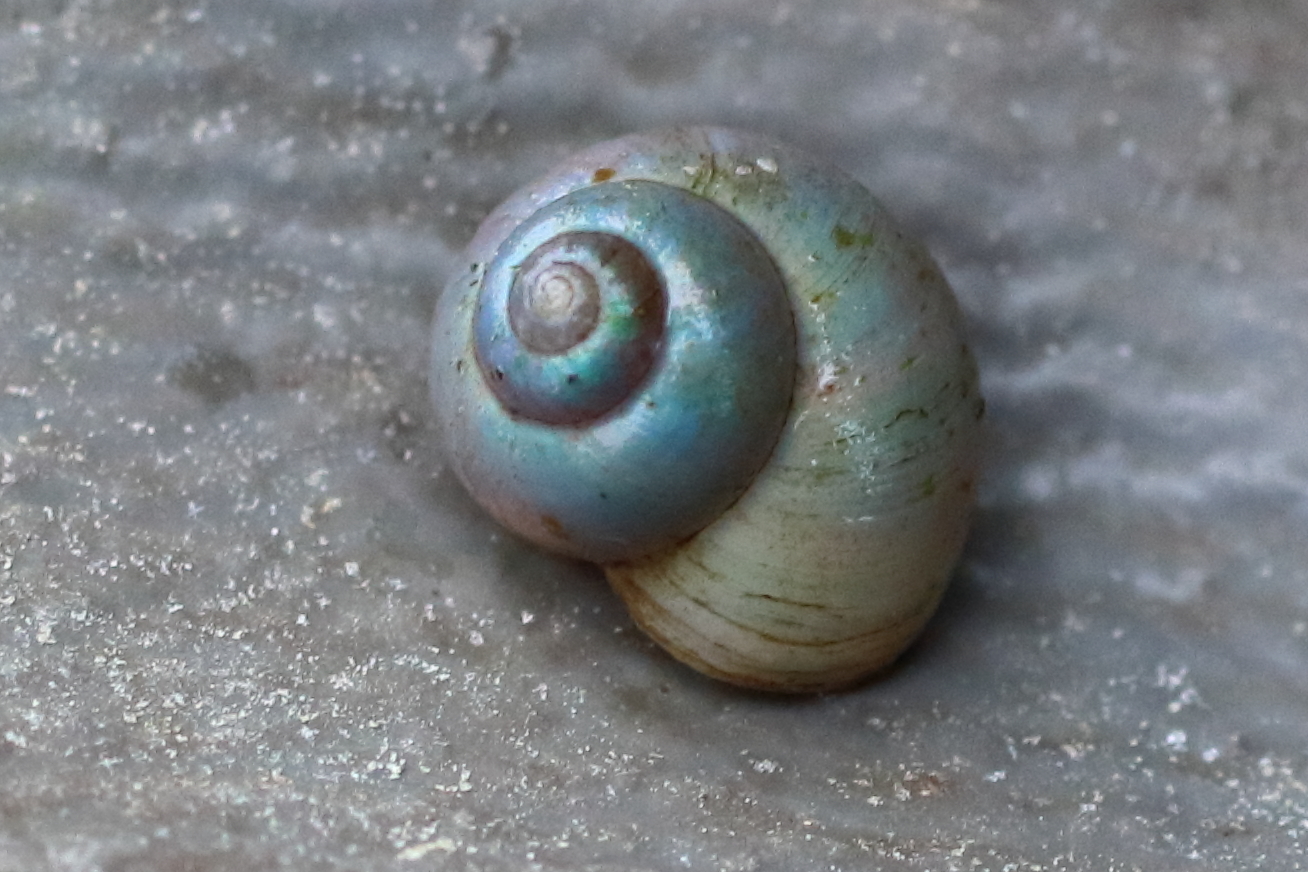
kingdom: Animalia
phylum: Mollusca
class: Gastropoda
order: Trochida
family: Margaritidae
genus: Margarites
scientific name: Margarites helicinus
